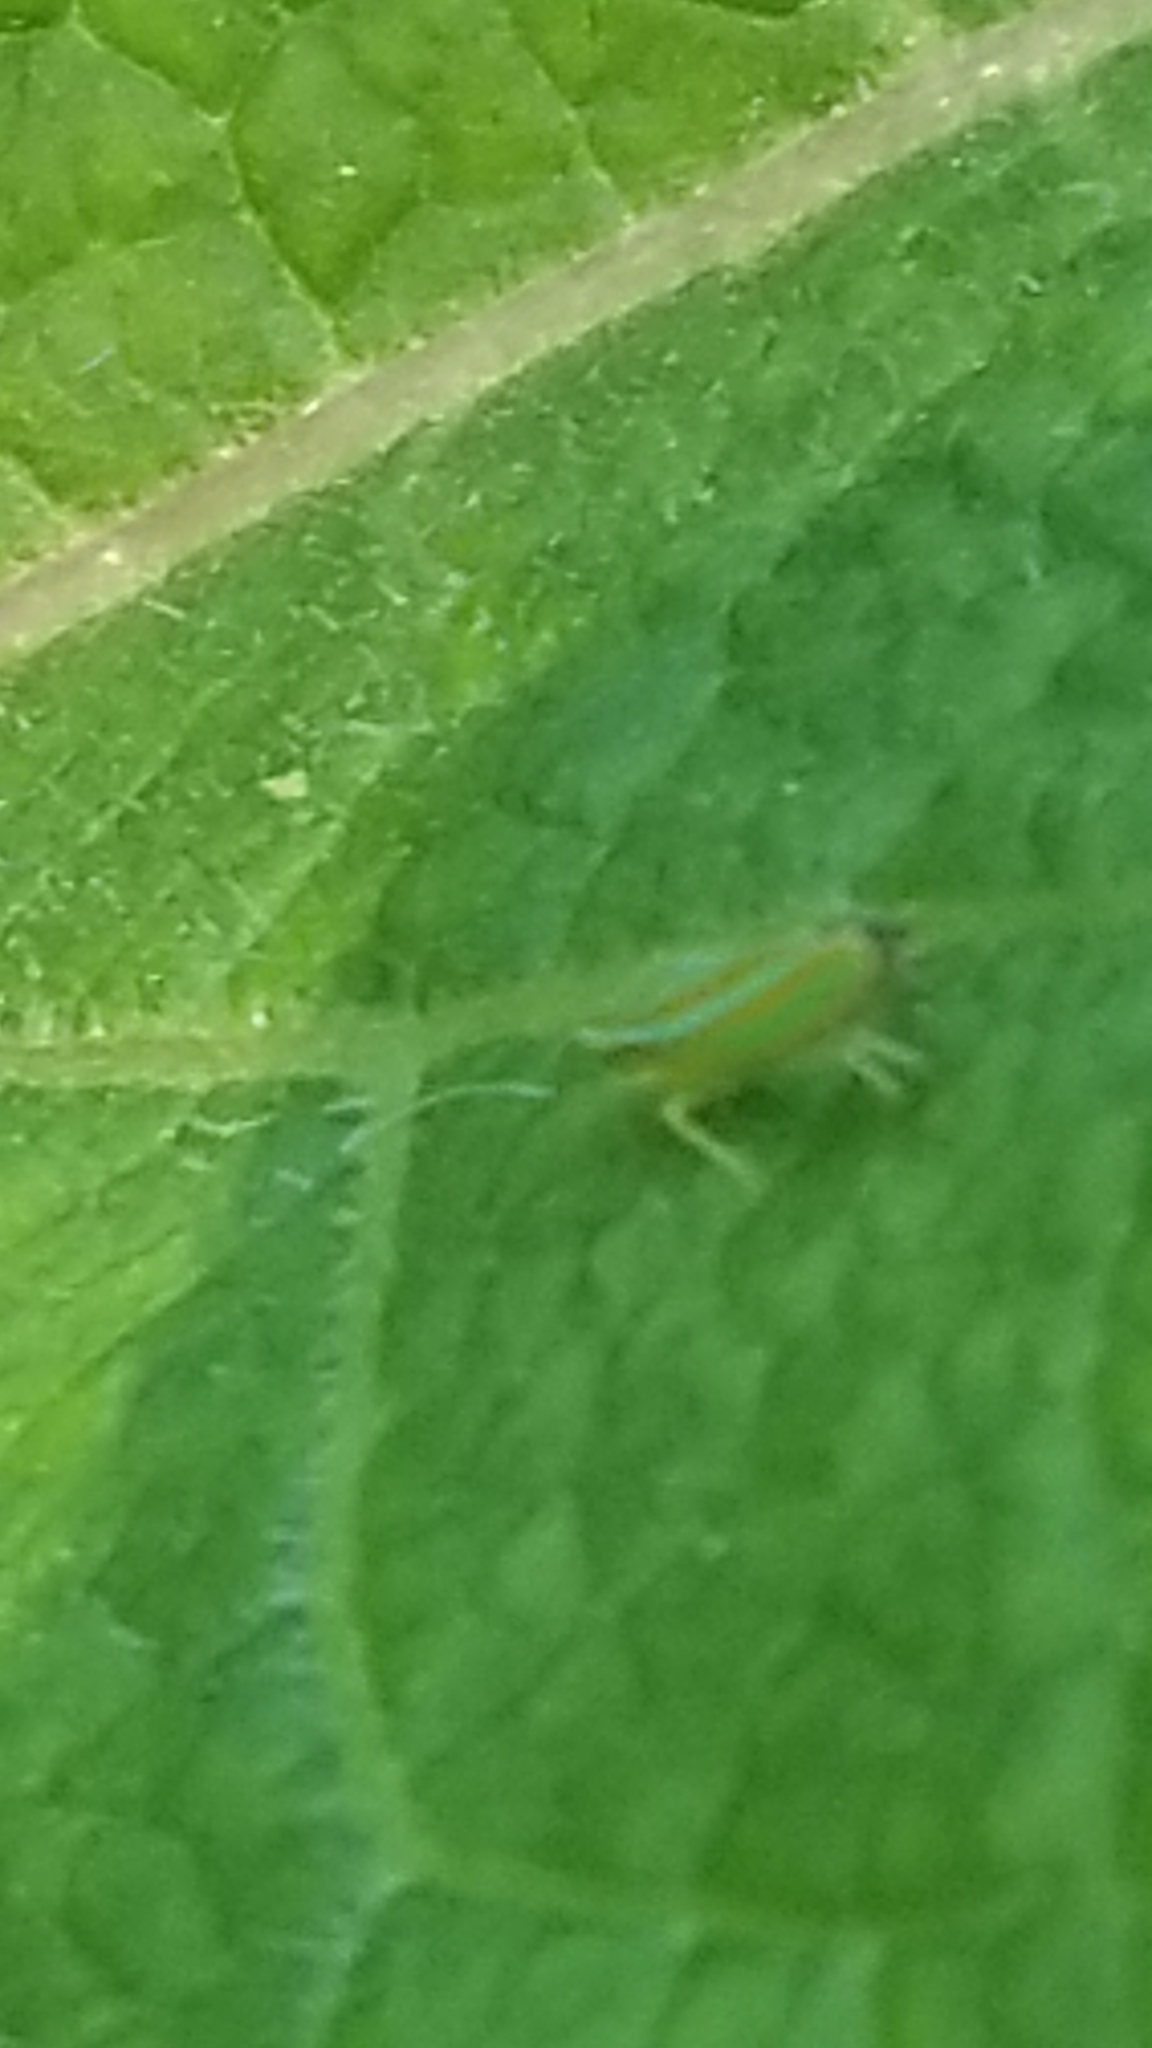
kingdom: Animalia
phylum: Arthropoda
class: Insecta
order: Hemiptera
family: Cicadellidae
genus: Graphocephala
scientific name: Graphocephala versuta
